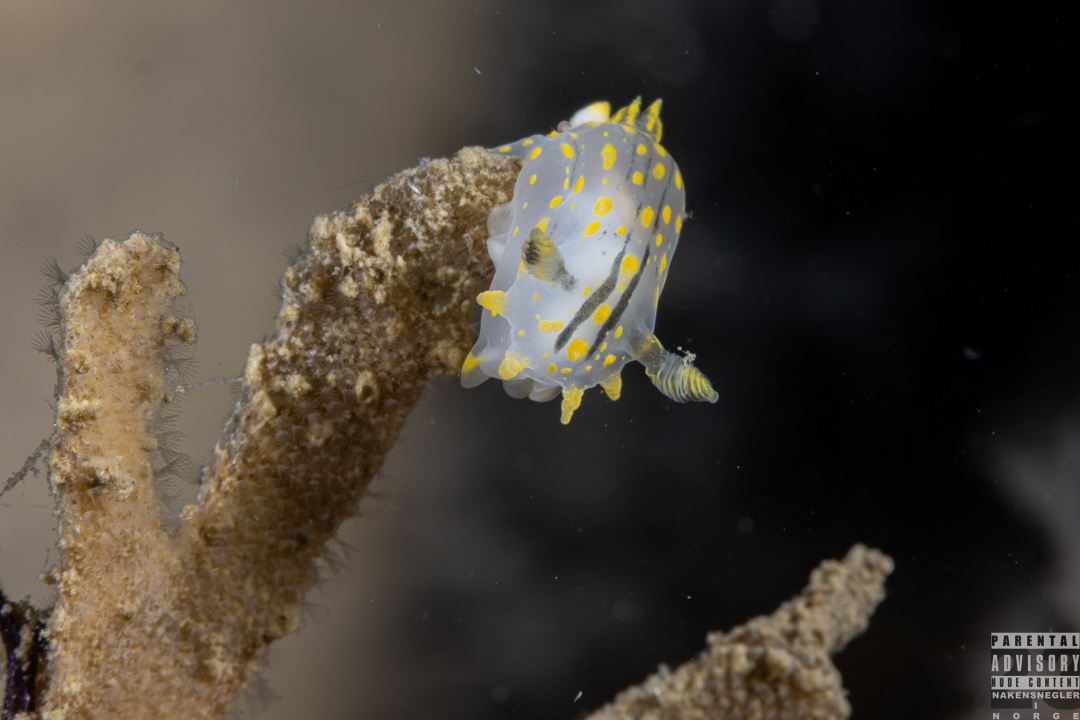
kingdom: Animalia
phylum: Mollusca
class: Gastropoda
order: Nudibranchia
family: Polyceridae
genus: Polycera
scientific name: Polycera quadrilineata
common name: Four-striped polycera
